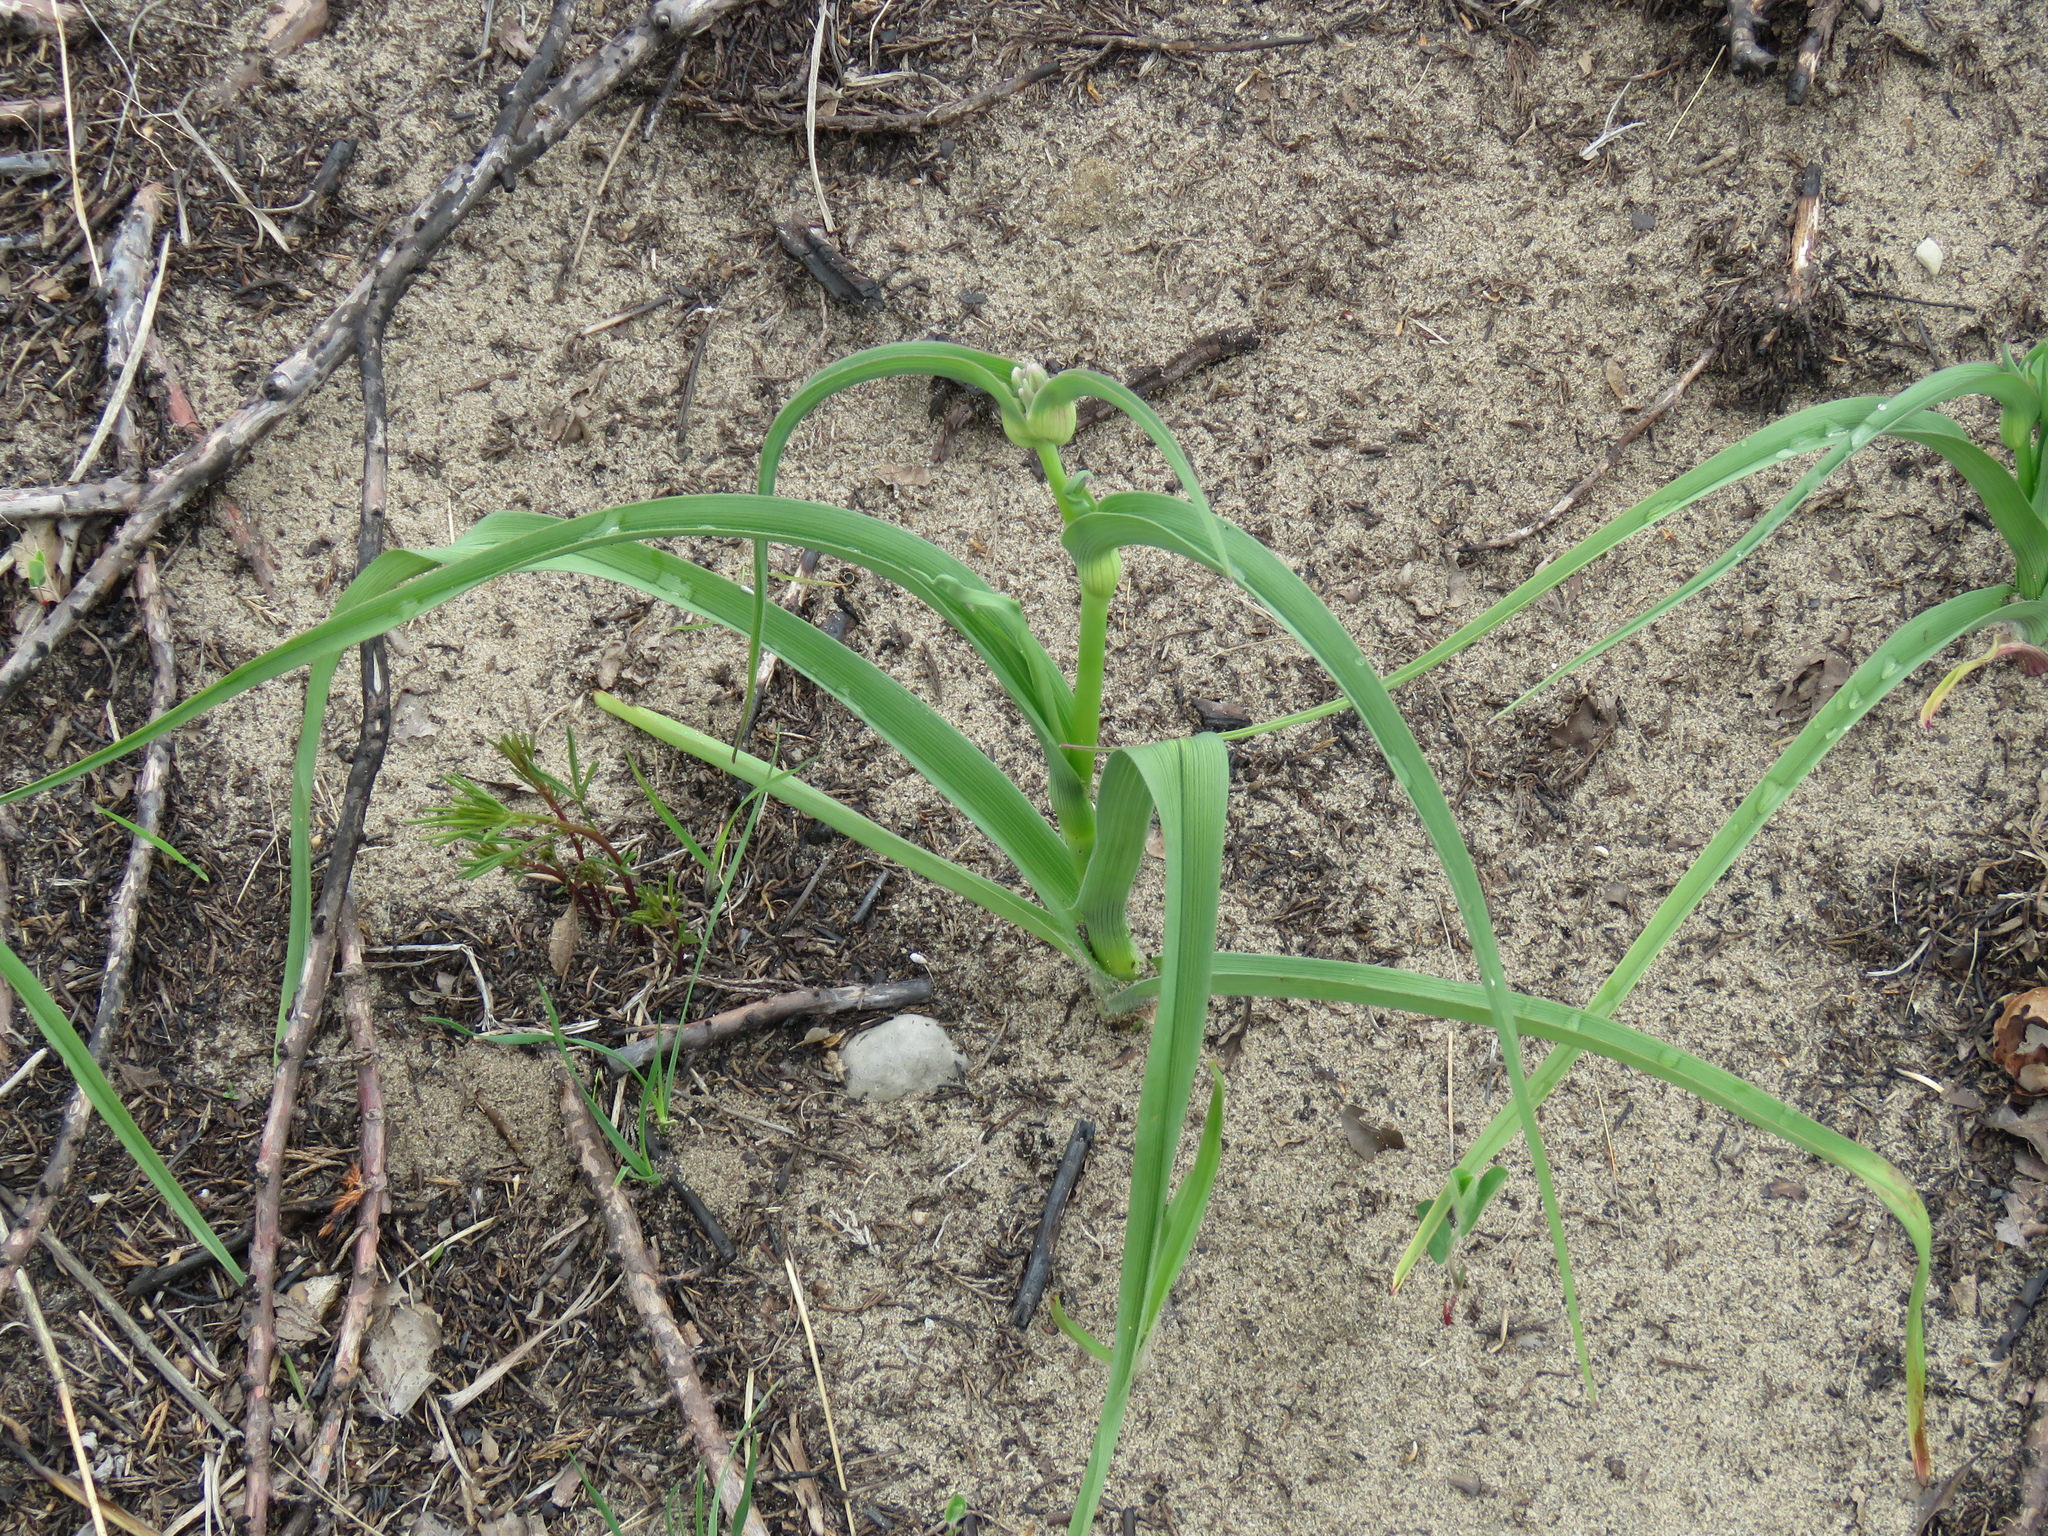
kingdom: Plantae
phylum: Tracheophyta
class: Liliopsida
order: Commelinales
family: Commelinaceae
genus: Tradescantia
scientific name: Tradescantia ohiensis
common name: Ohio spiderwort
